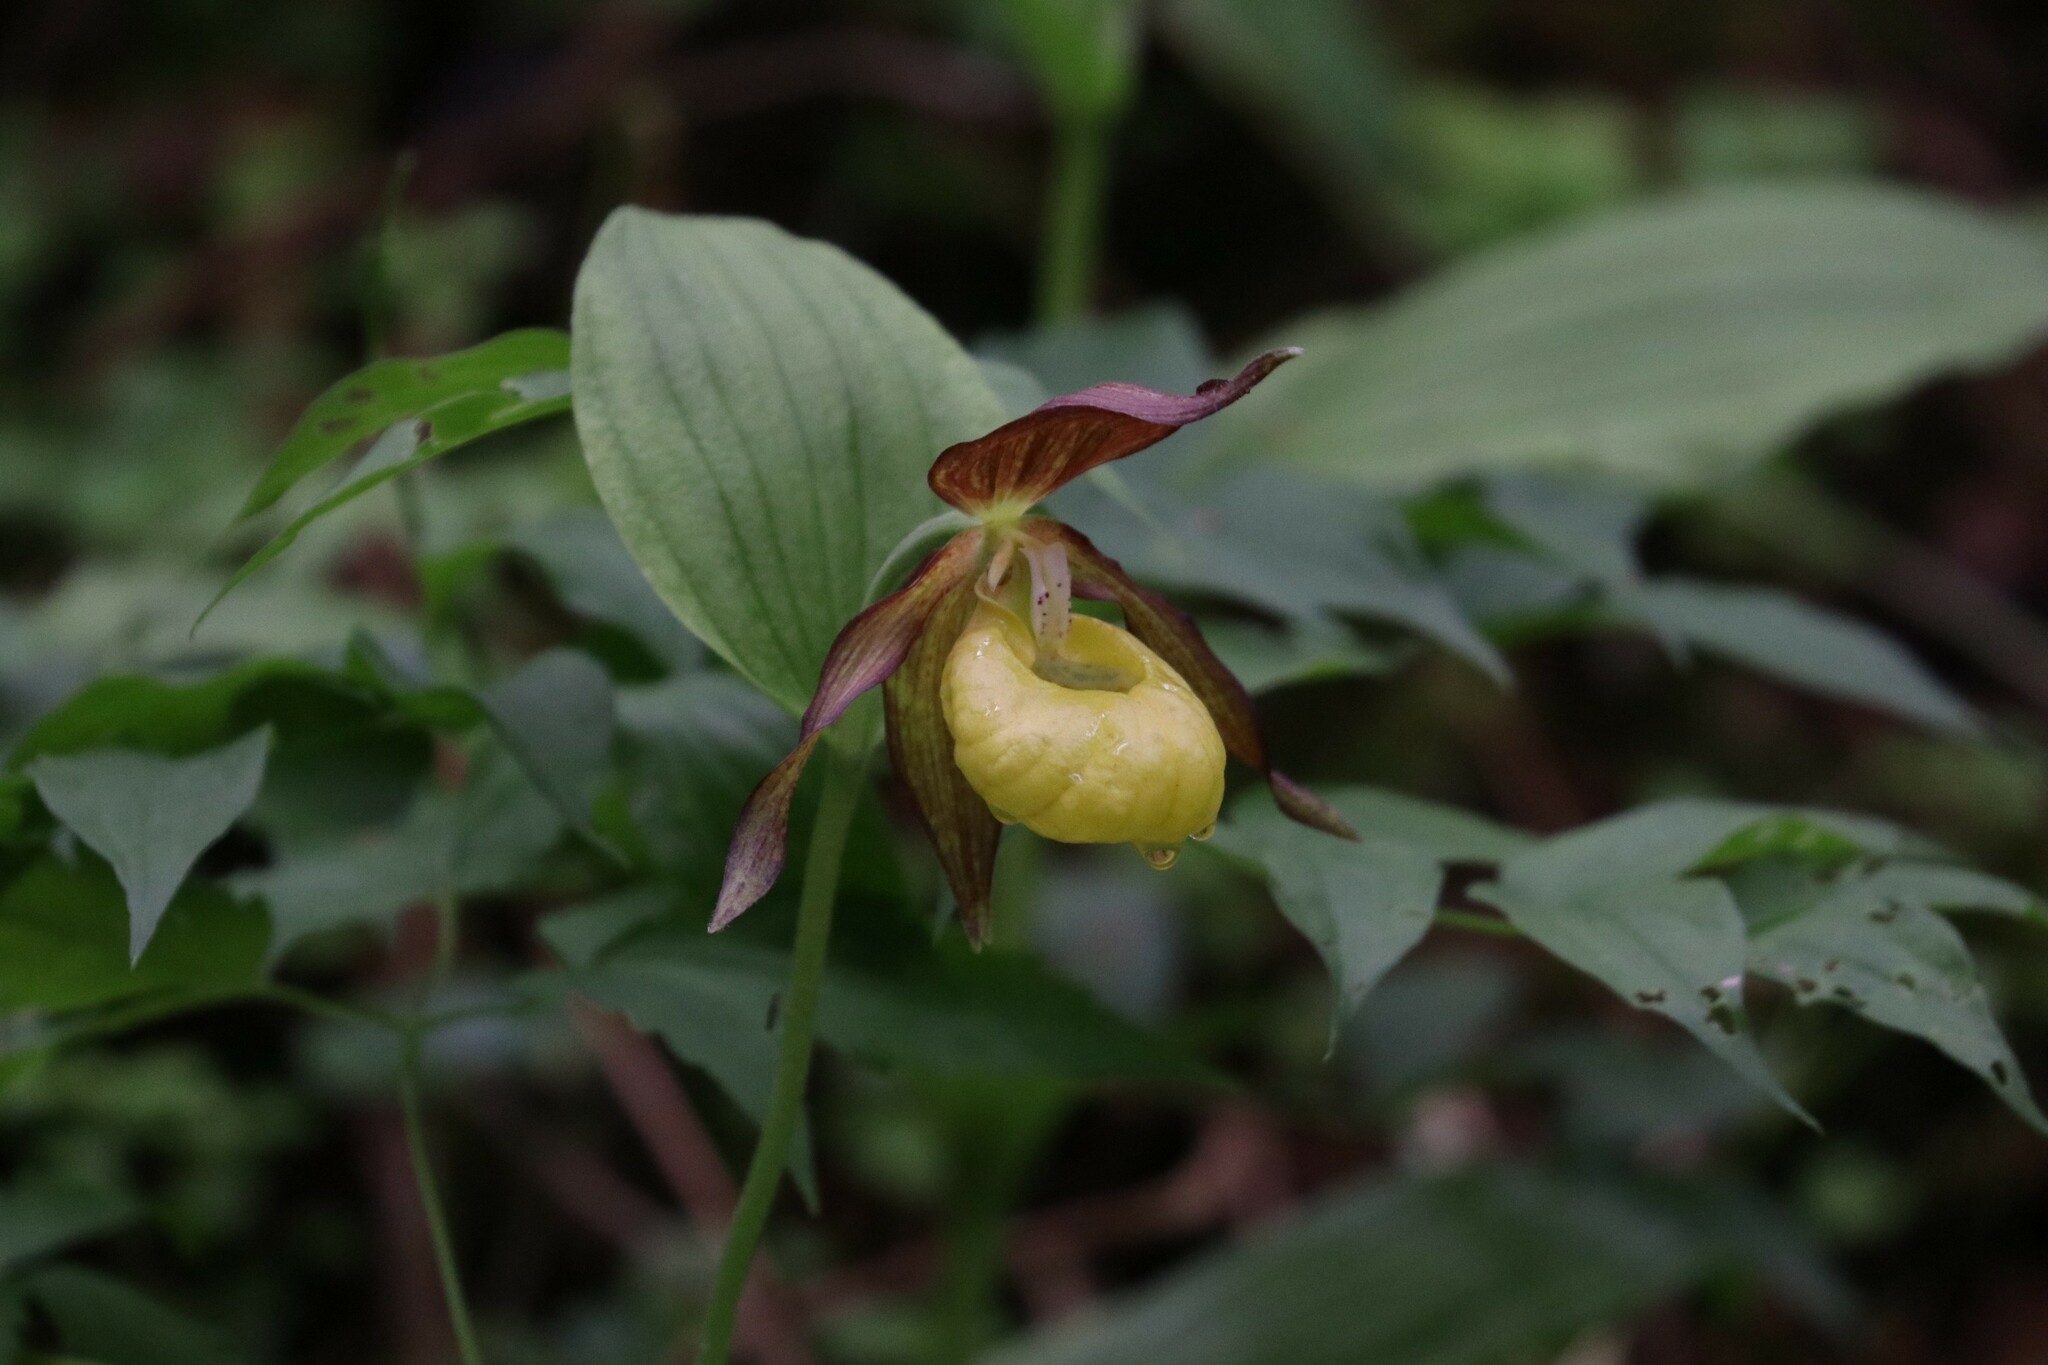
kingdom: Plantae
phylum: Tracheophyta
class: Liliopsida
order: Asparagales
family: Orchidaceae
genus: Cypripedium
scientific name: Cypripedium calceolus
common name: Lady's-slipper
